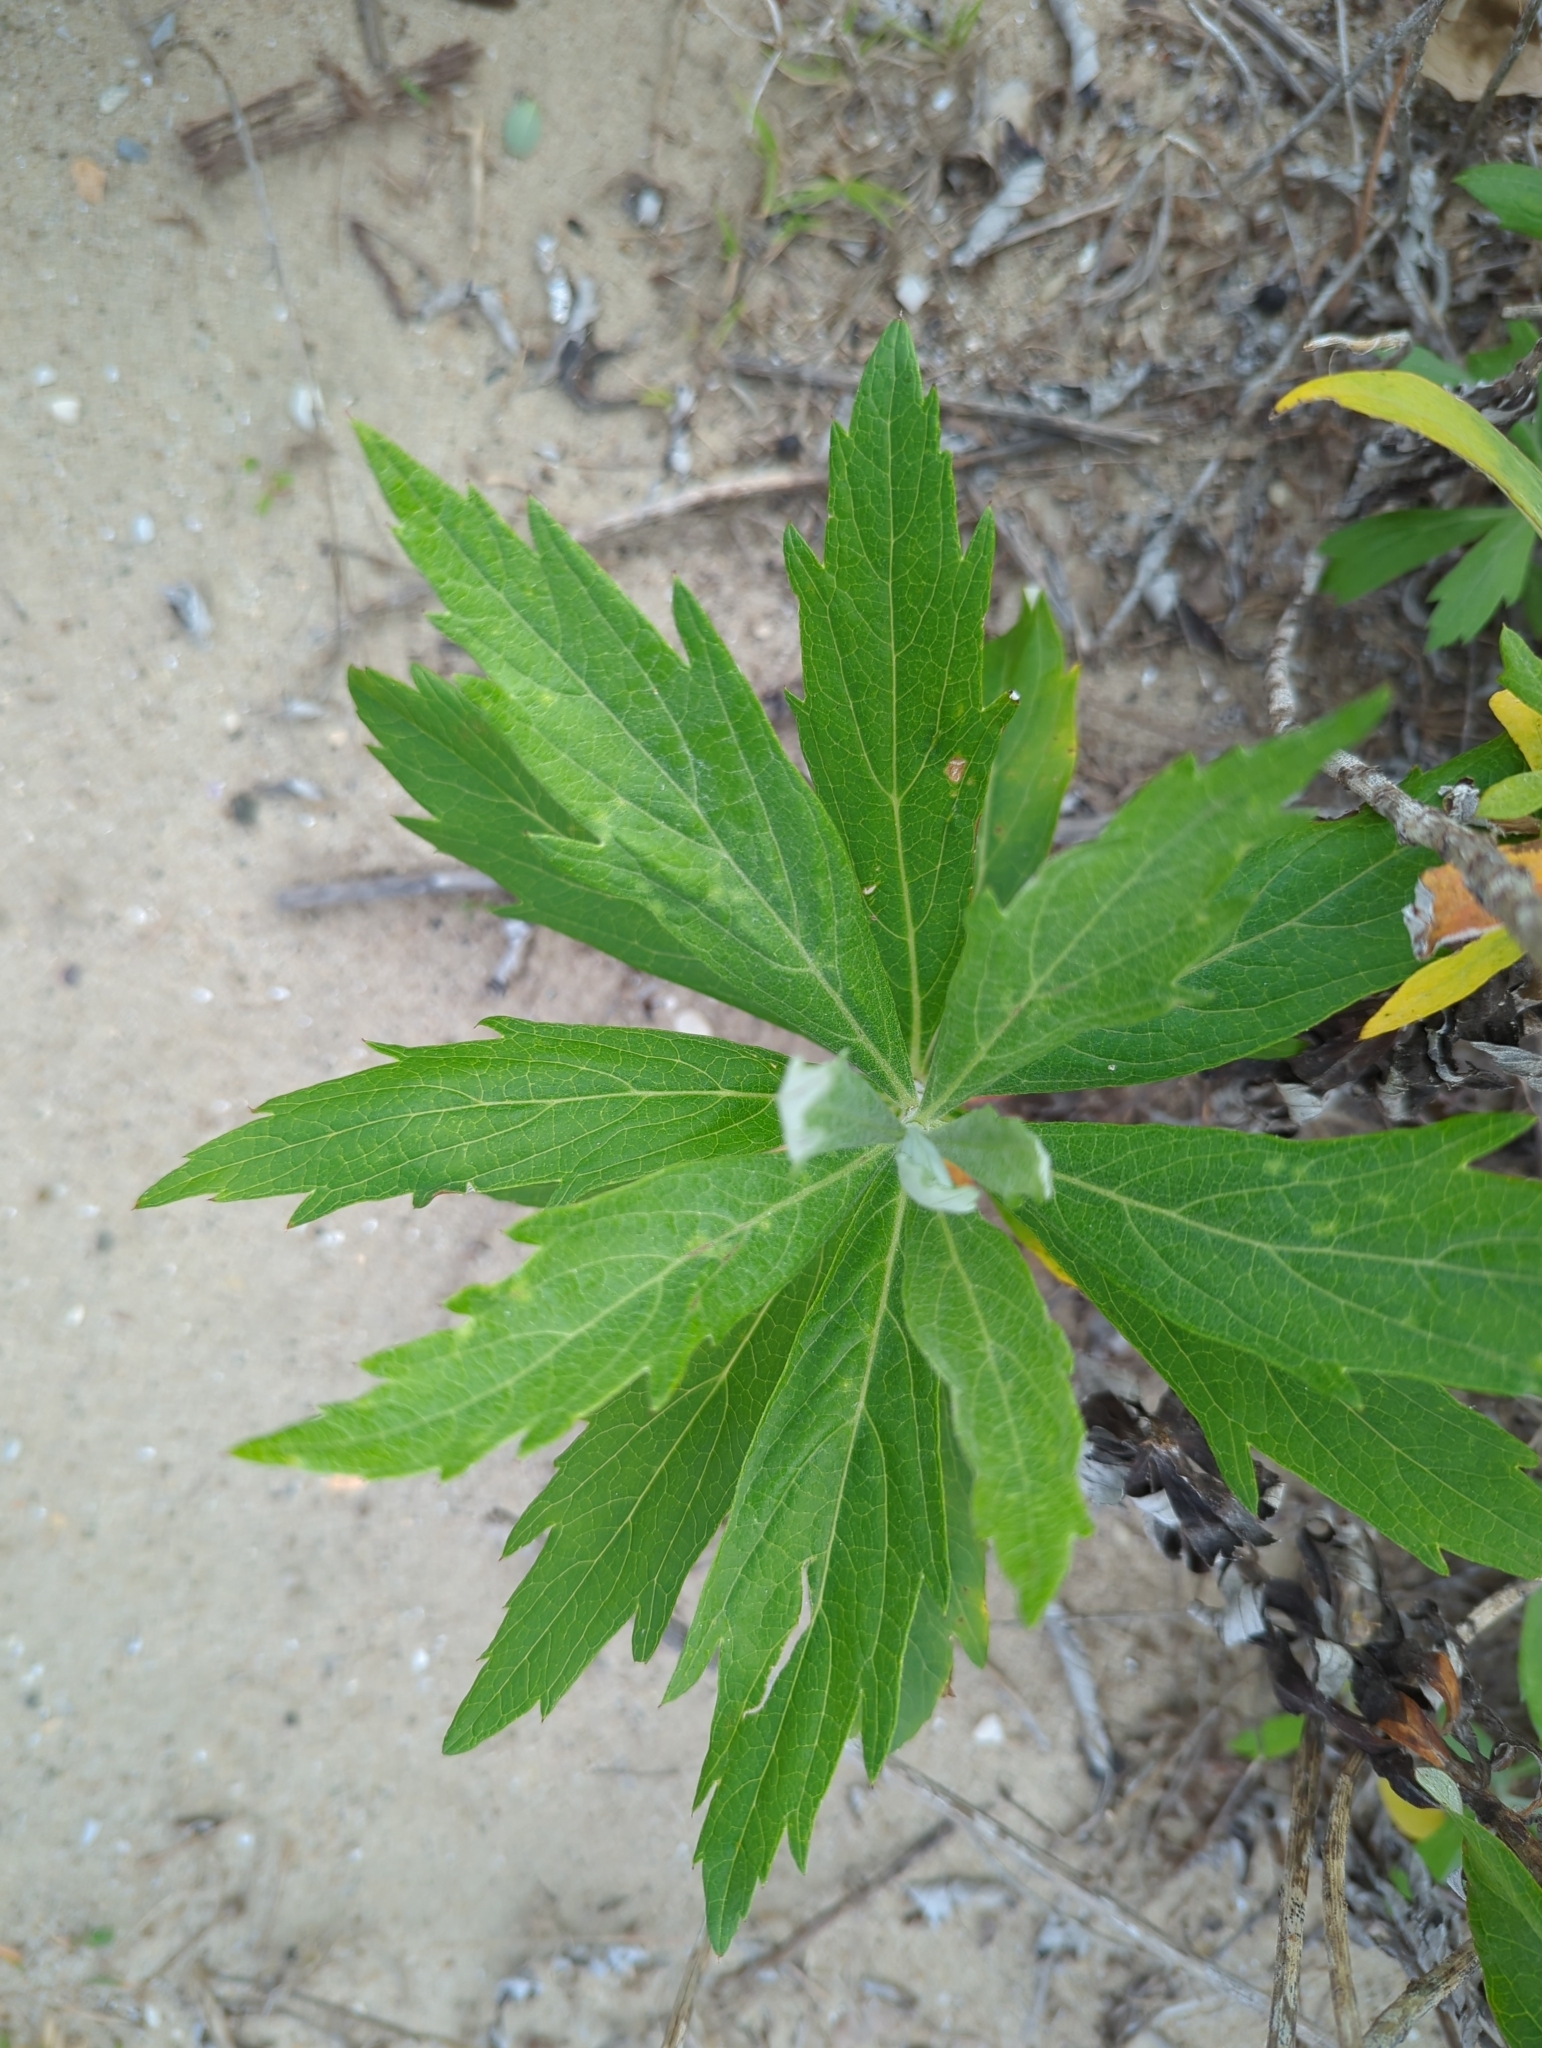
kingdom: Plantae
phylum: Tracheophyta
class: Magnoliopsida
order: Asterales
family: Asteraceae
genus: Artemisia
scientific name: Artemisia douglasiana
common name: Northwest mugwort
